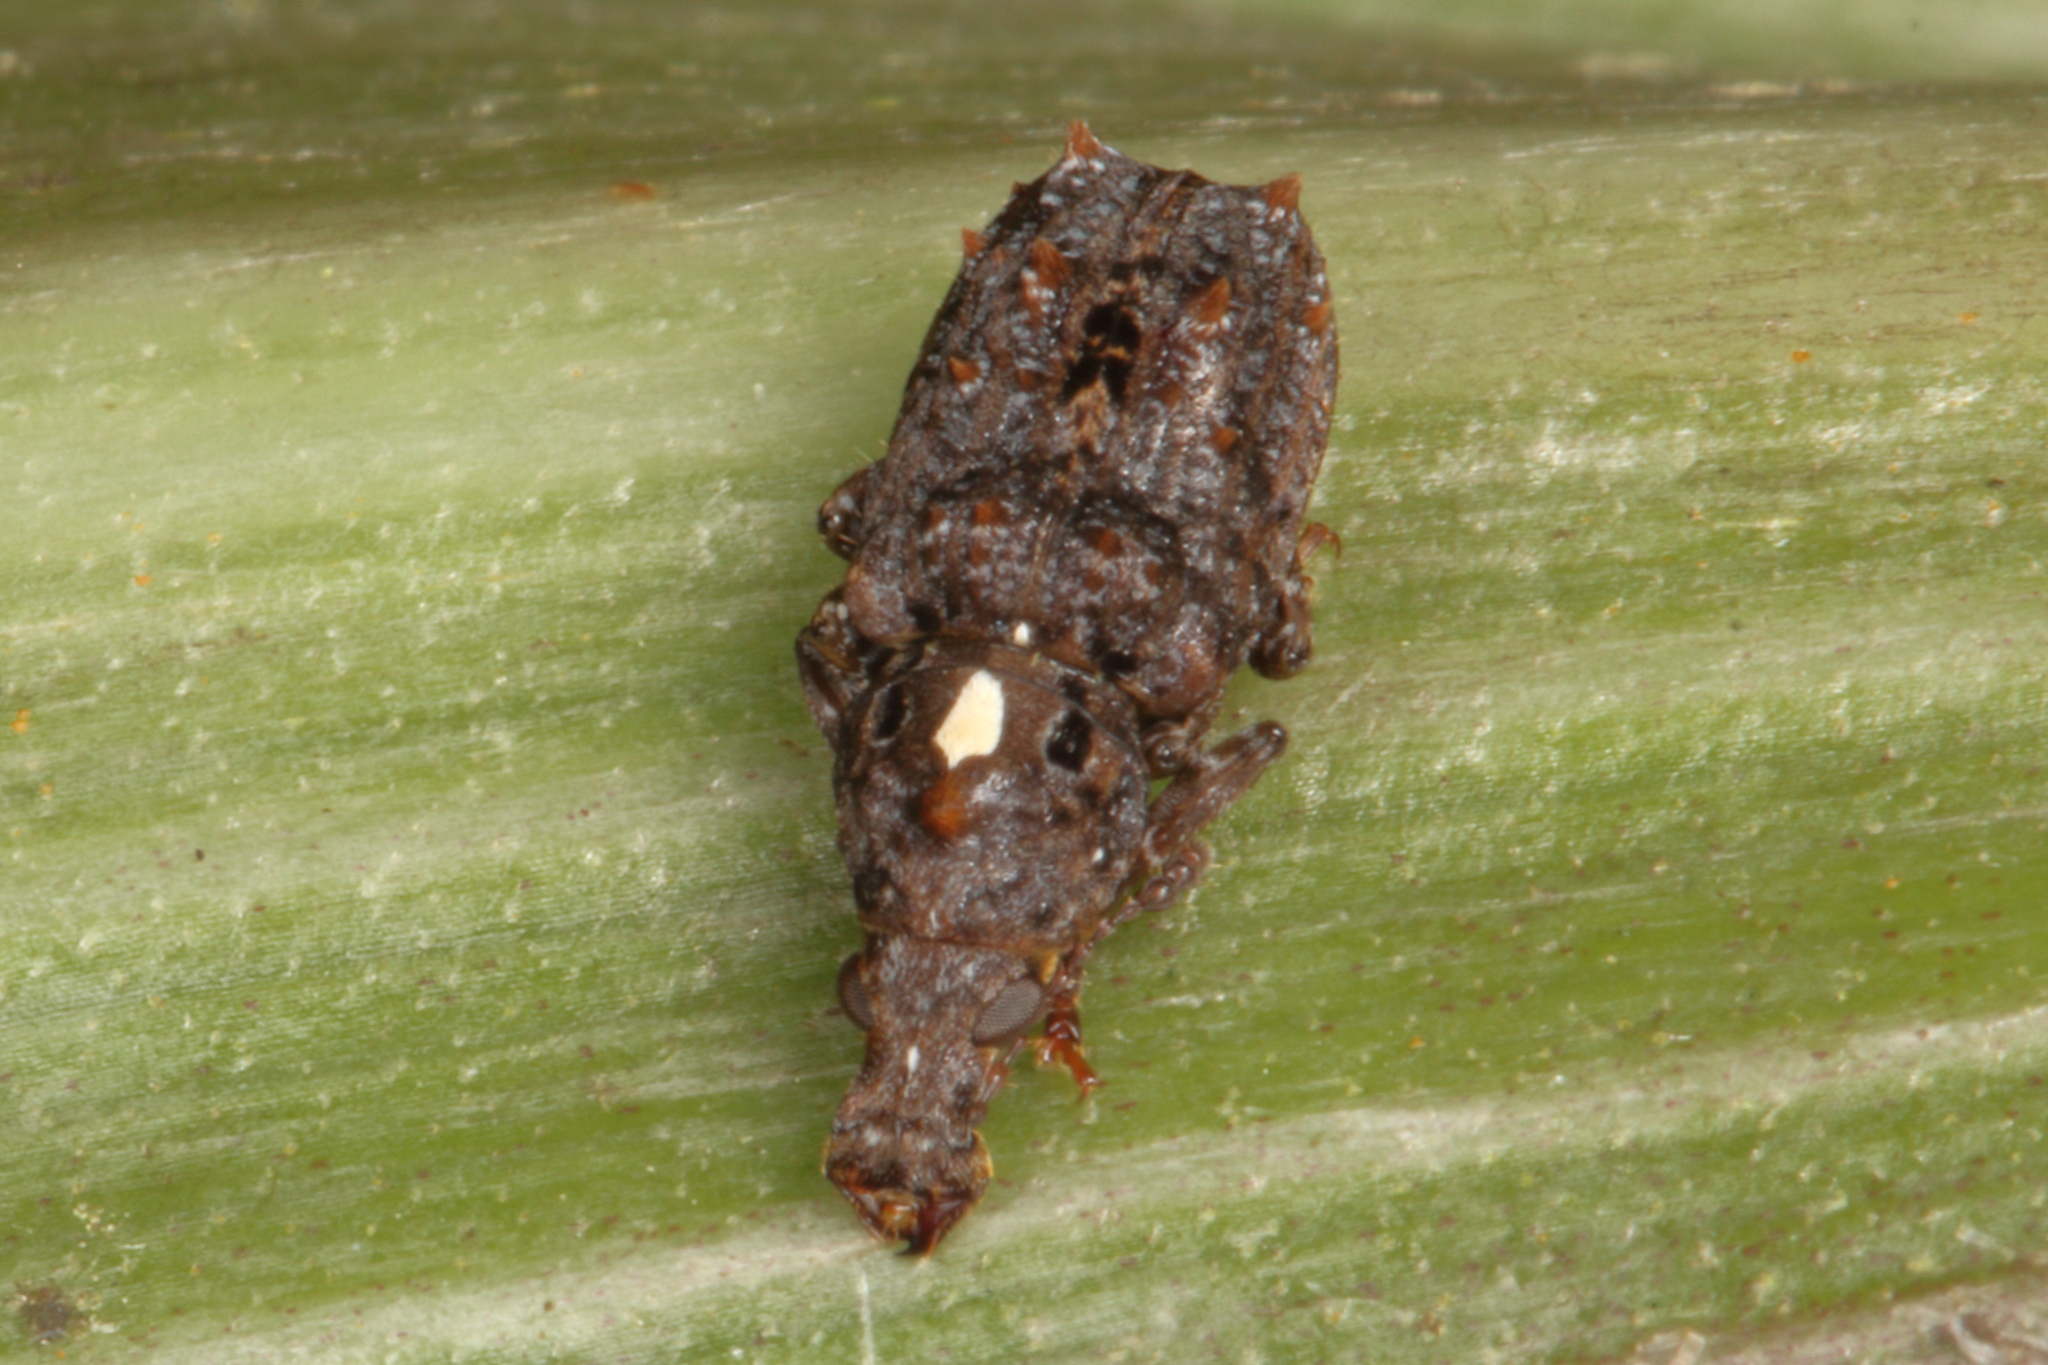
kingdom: Animalia
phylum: Arthropoda
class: Insecta
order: Coleoptera
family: Anthribidae
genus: Lophus
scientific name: Lophus
